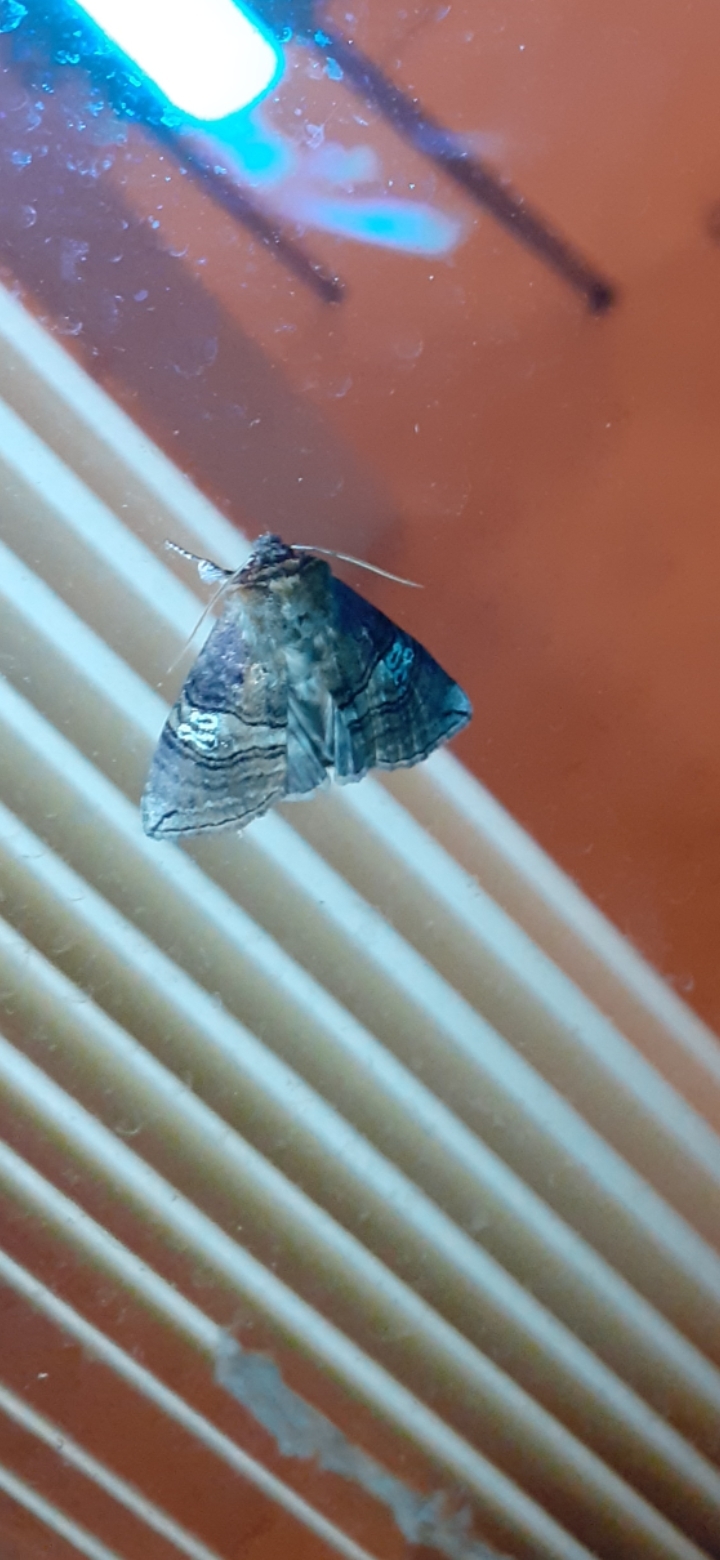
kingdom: Animalia
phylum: Arthropoda
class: Insecta
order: Lepidoptera
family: Drepanidae
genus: Tethea
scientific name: Tethea ocularis
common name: Figure of eighty
